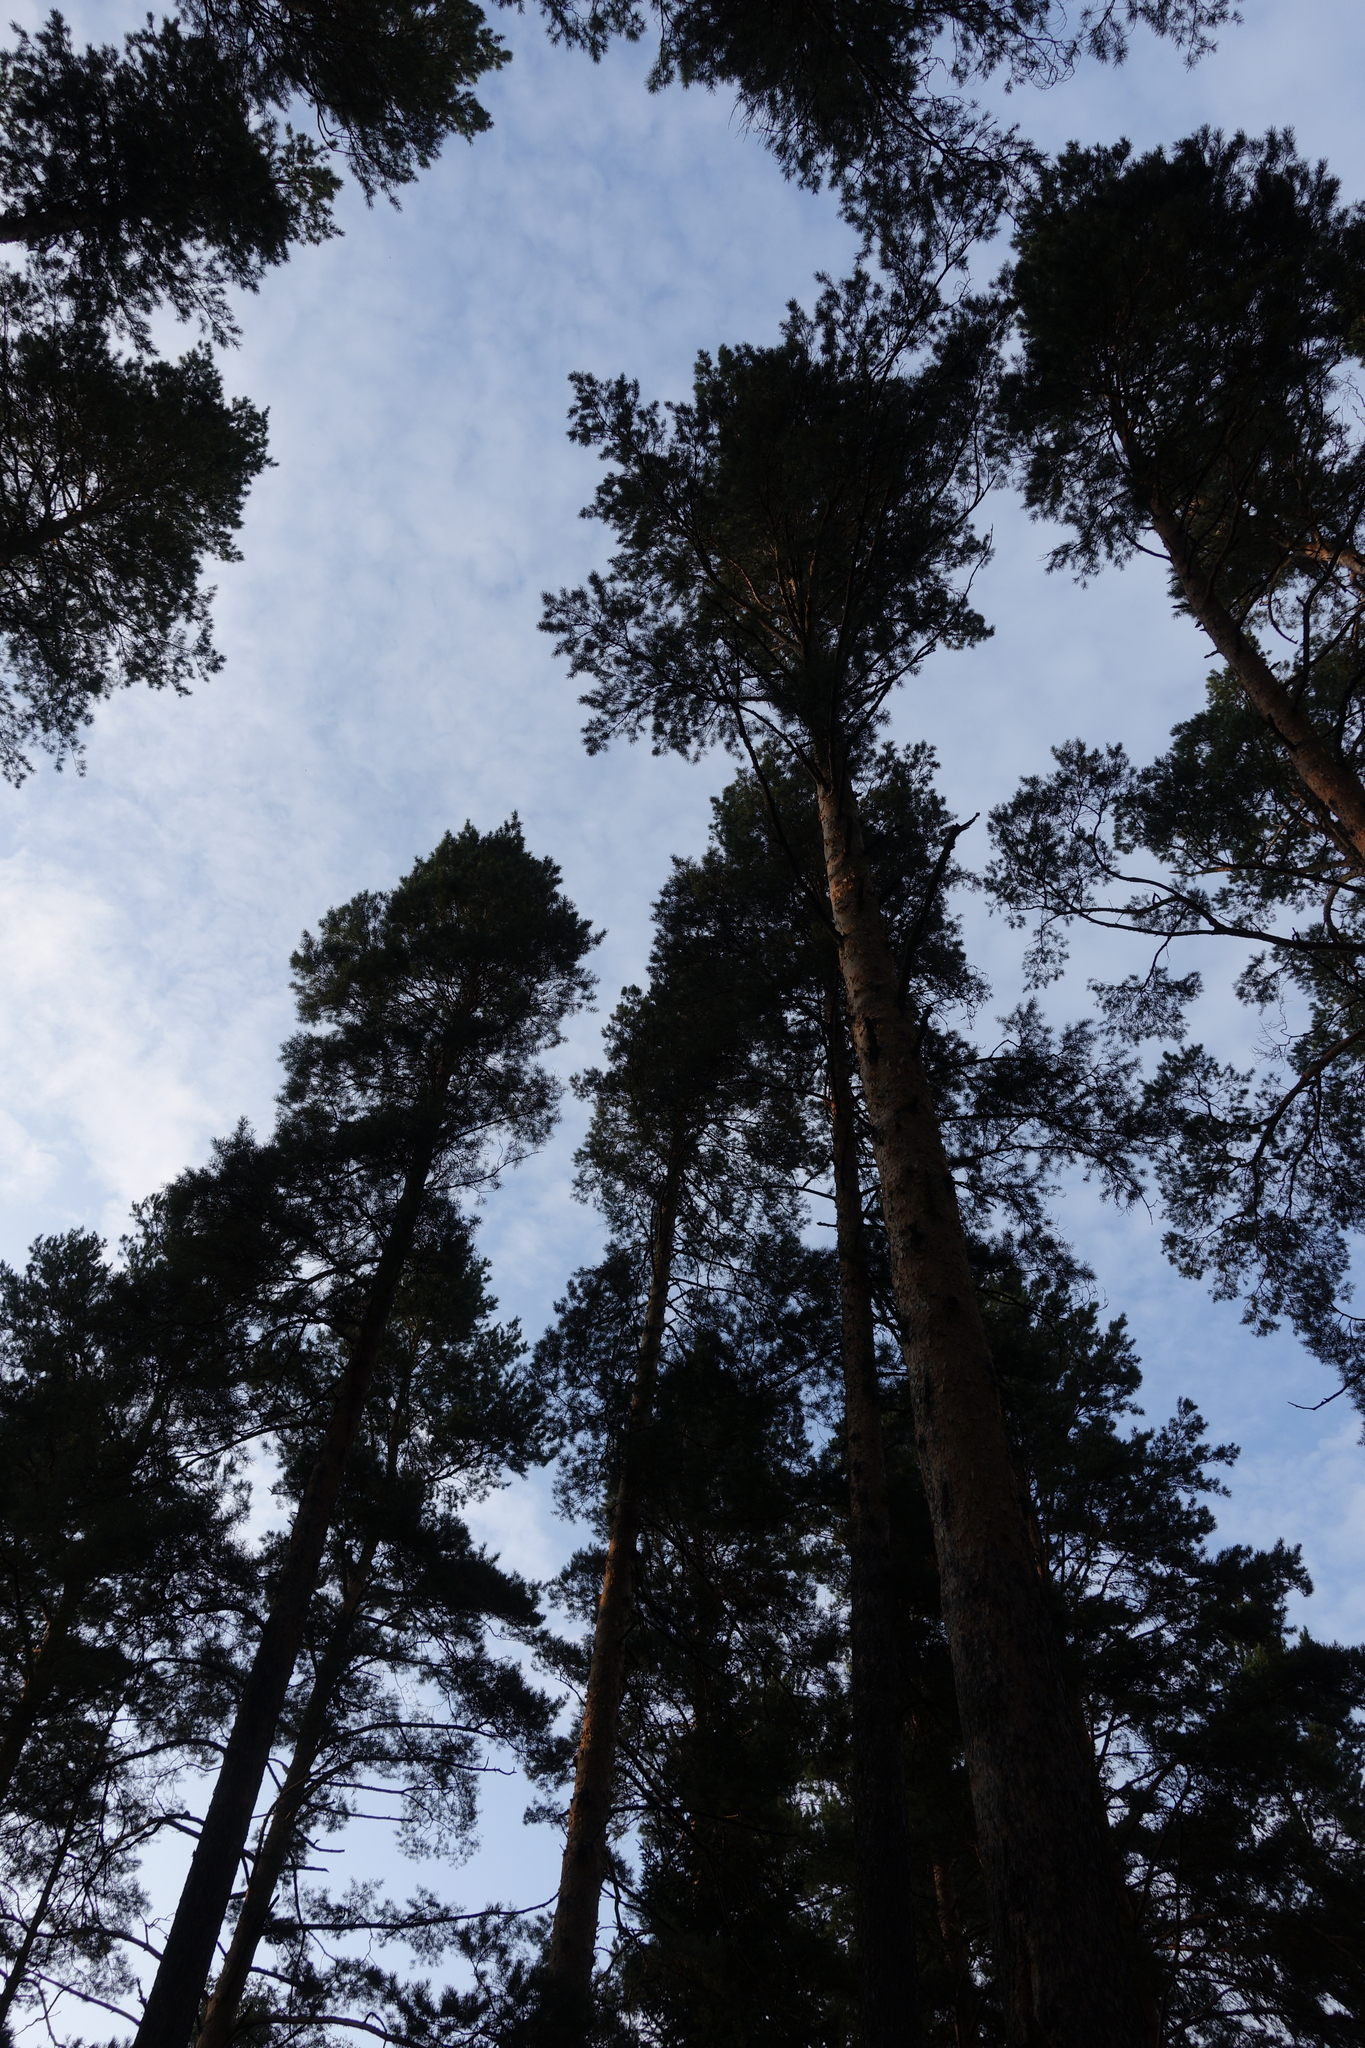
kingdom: Plantae
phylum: Tracheophyta
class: Pinopsida
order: Pinales
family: Pinaceae
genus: Pinus
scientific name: Pinus sylvestris
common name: Scots pine
